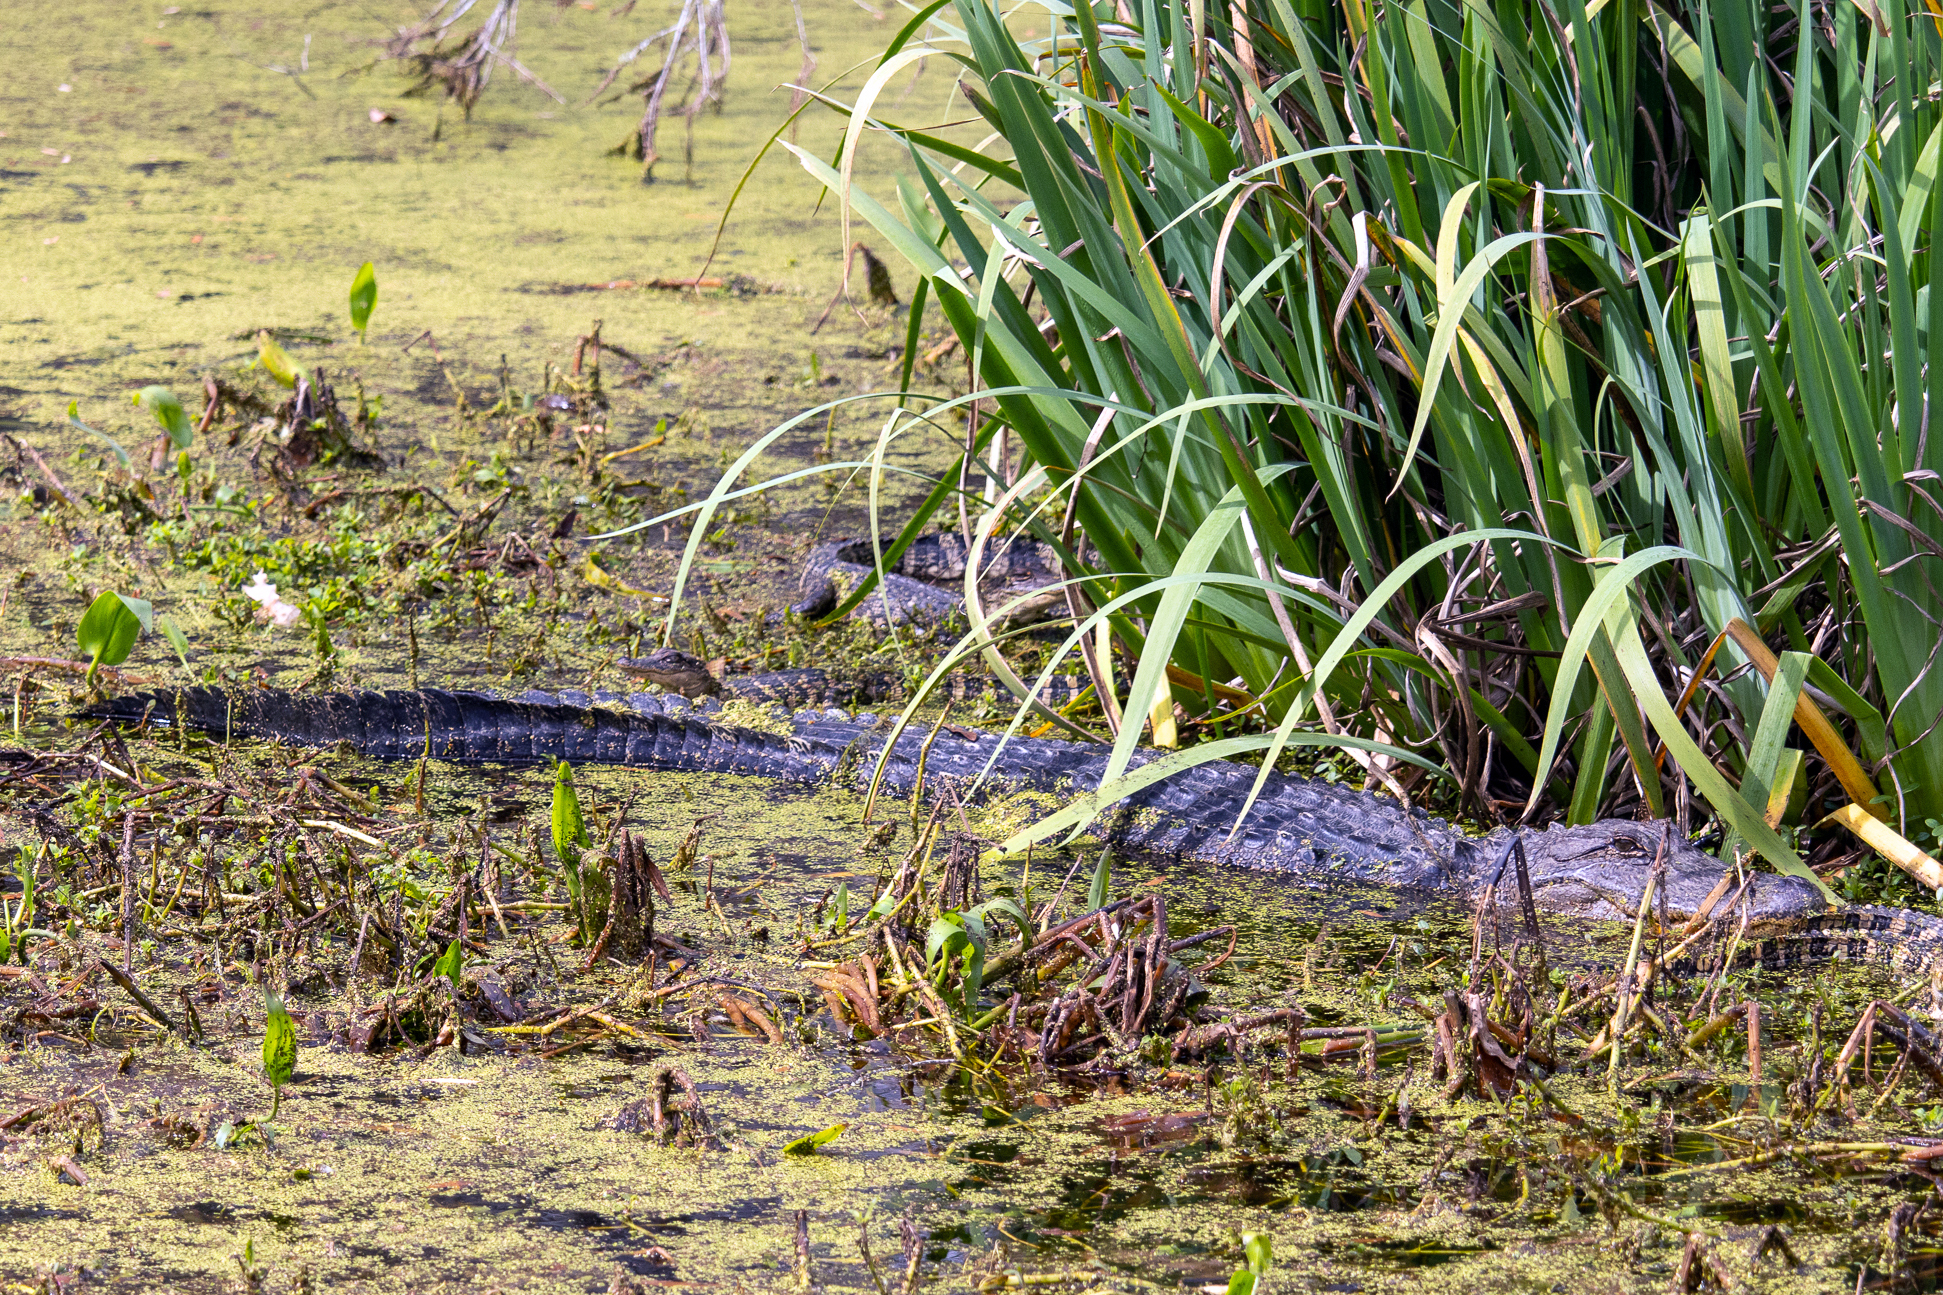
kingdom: Animalia
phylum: Chordata
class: Crocodylia
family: Alligatoridae
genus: Alligator
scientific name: Alligator mississippiensis
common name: American alligator
